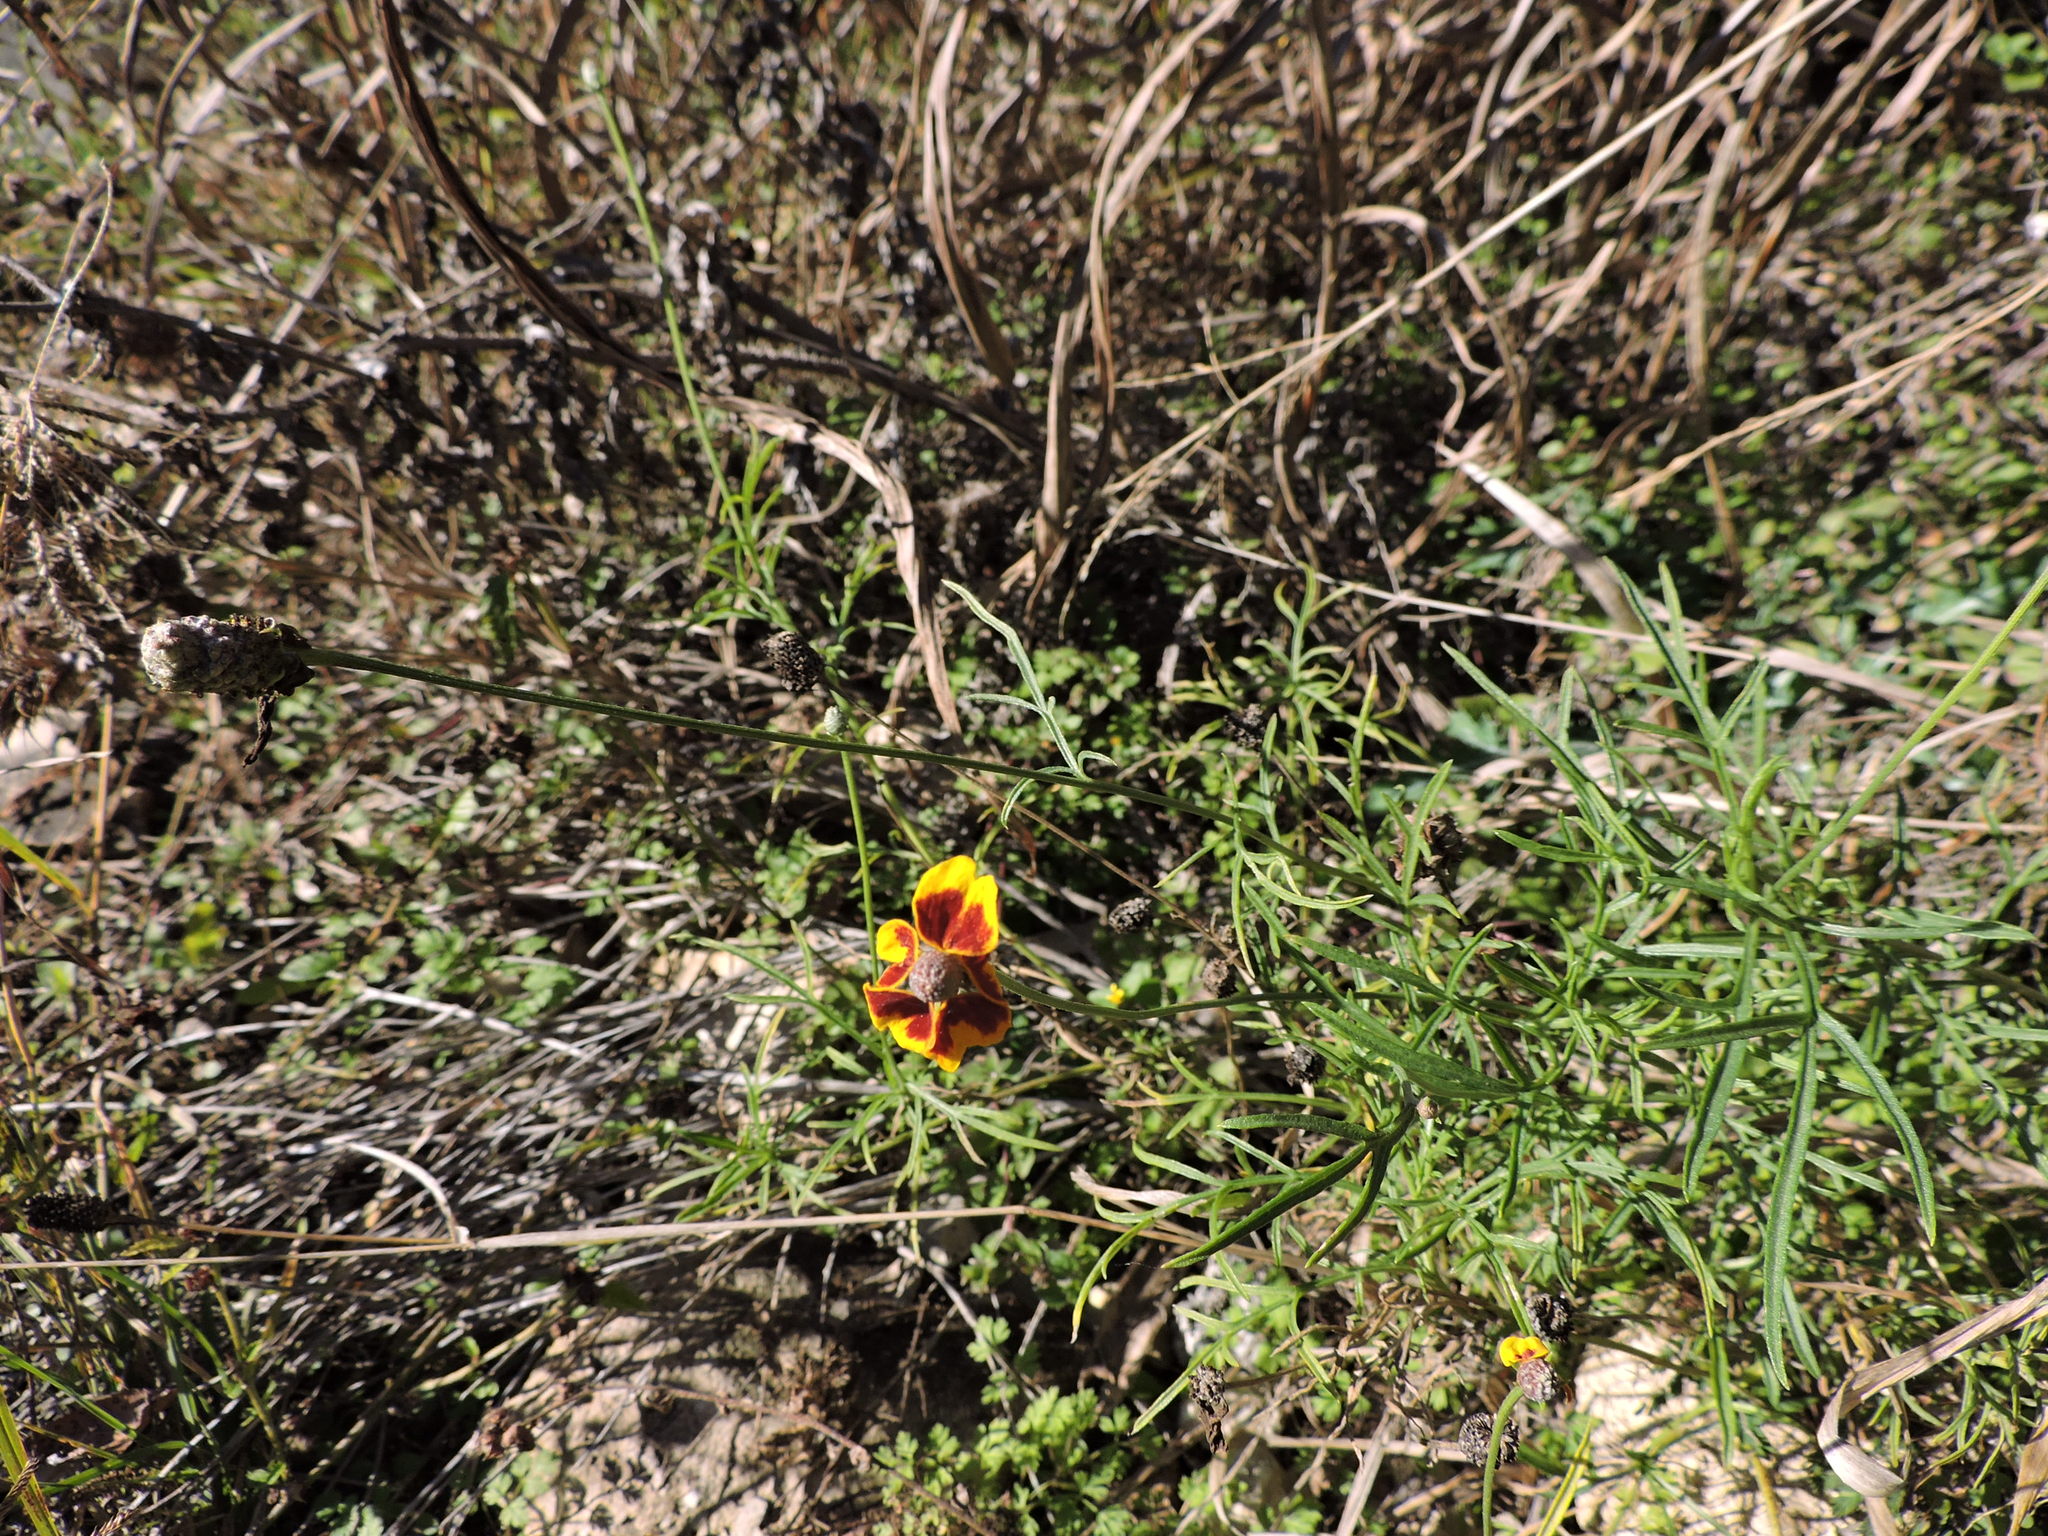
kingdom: Plantae
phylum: Tracheophyta
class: Magnoliopsida
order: Asterales
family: Asteraceae
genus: Ratibida
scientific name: Ratibida columnifera
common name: Prairie coneflower
